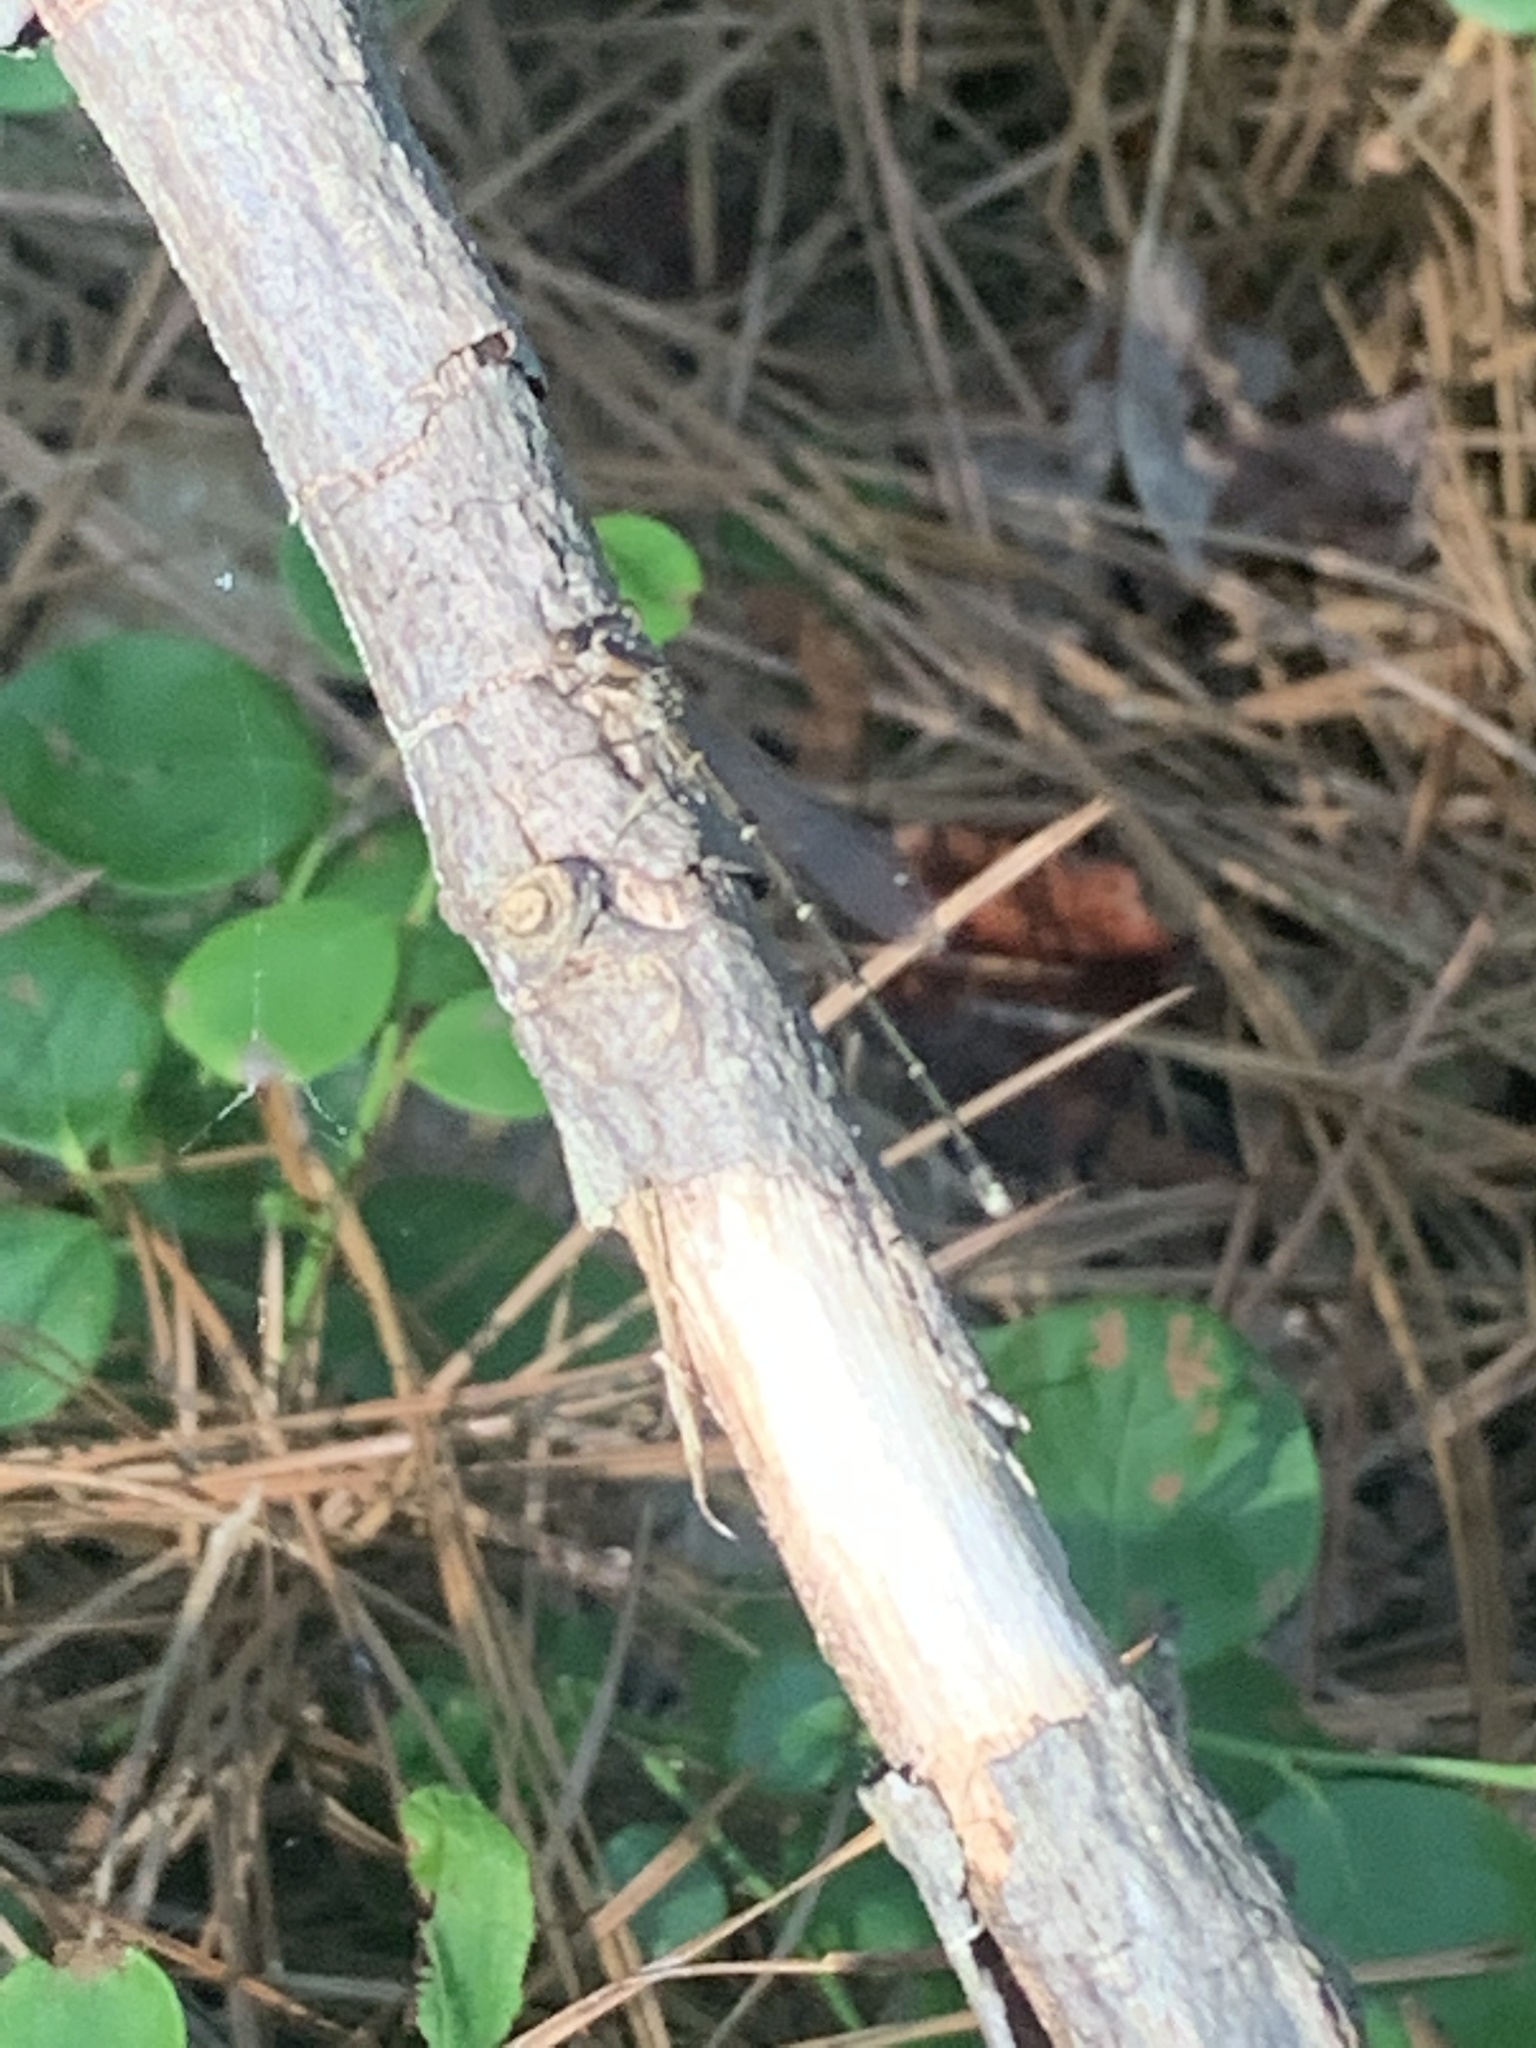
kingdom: Animalia
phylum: Arthropoda
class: Insecta
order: Odonata
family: Coenagrionidae
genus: Argia
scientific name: Argia tibialis
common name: Blue-tipped dancer
